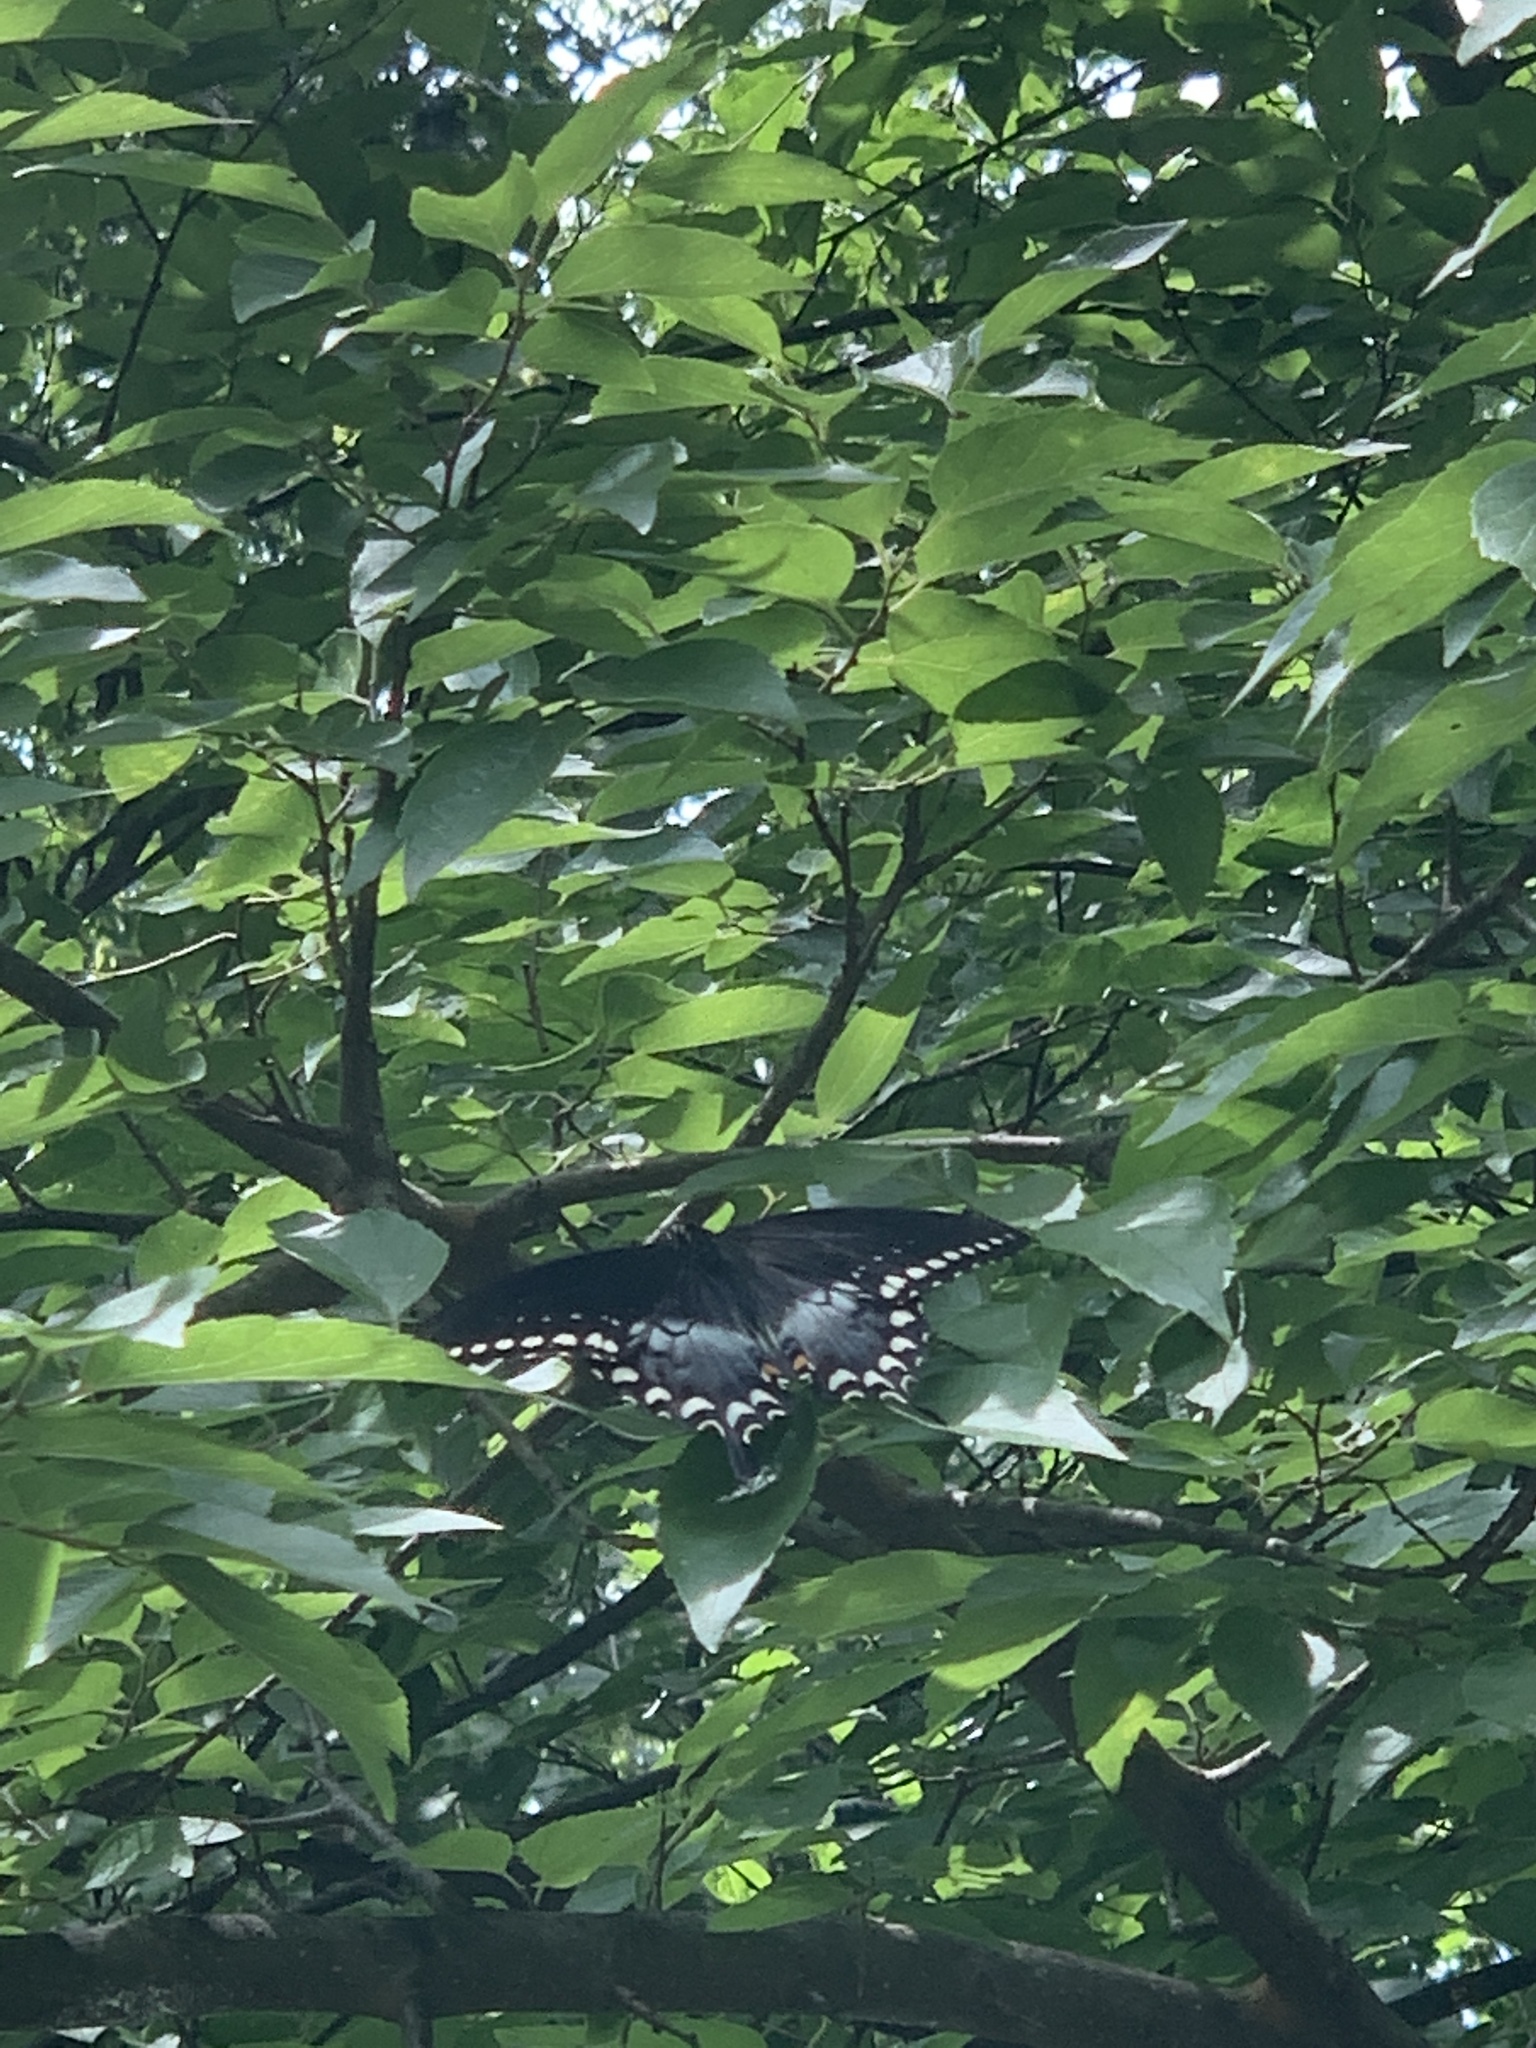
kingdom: Animalia
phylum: Arthropoda
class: Insecta
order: Lepidoptera
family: Papilionidae
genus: Papilio
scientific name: Papilio troilus
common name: Spicebush swallowtail
